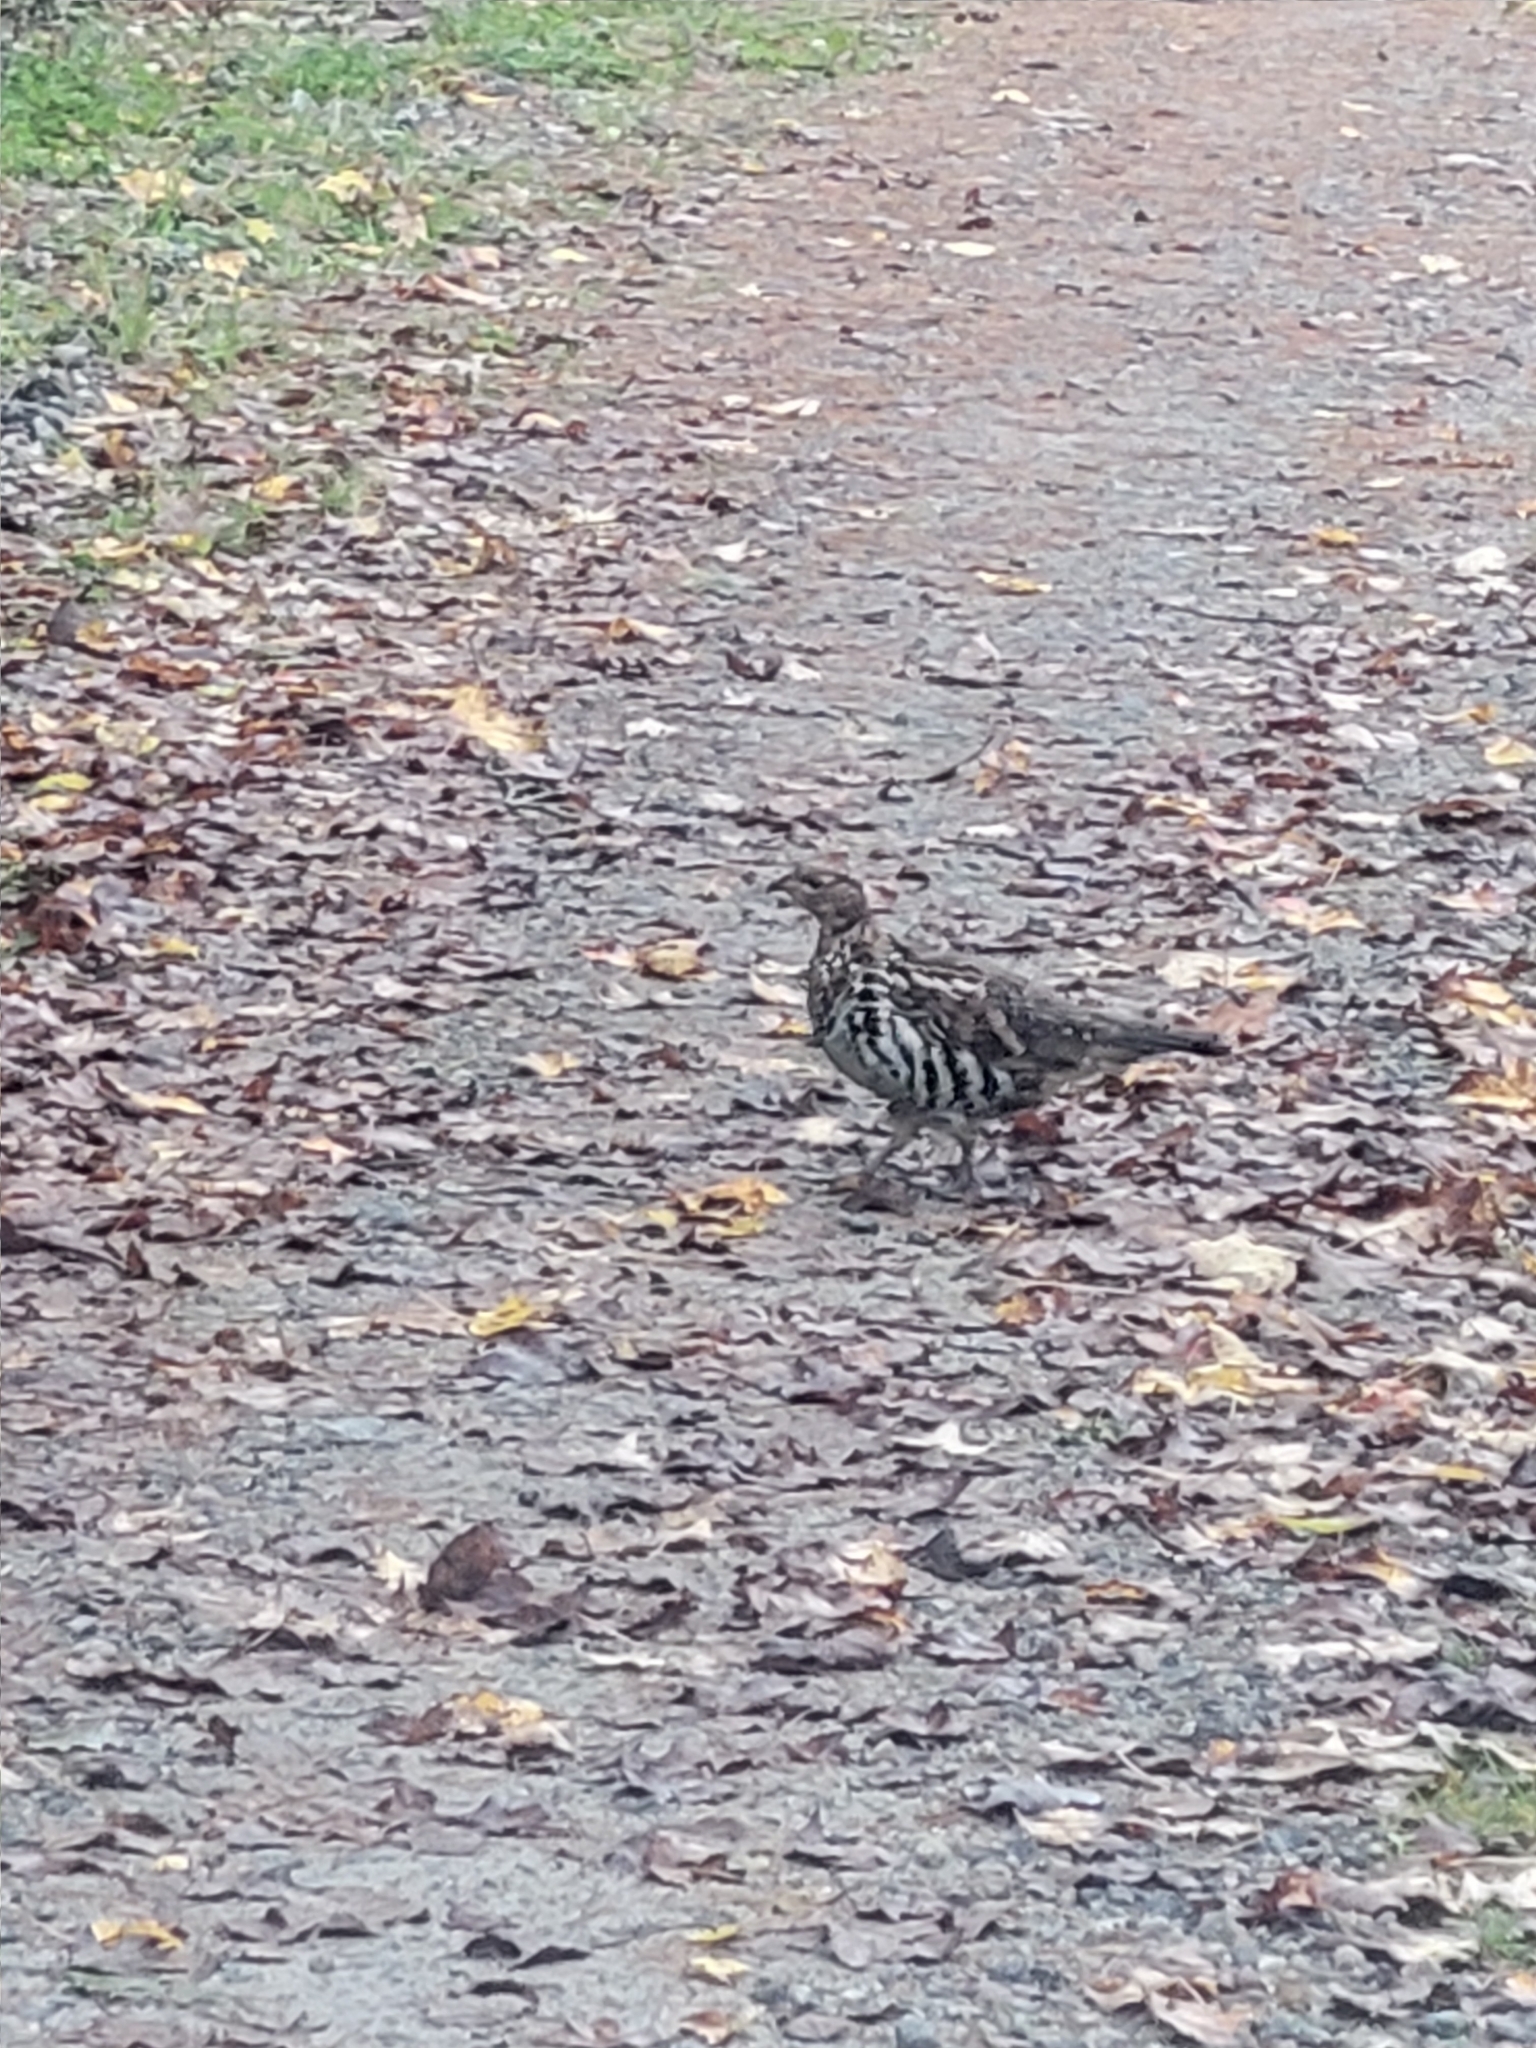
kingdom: Animalia
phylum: Chordata
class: Aves
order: Galliformes
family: Phasianidae
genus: Bonasa
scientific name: Bonasa umbellus
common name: Ruffed grouse
